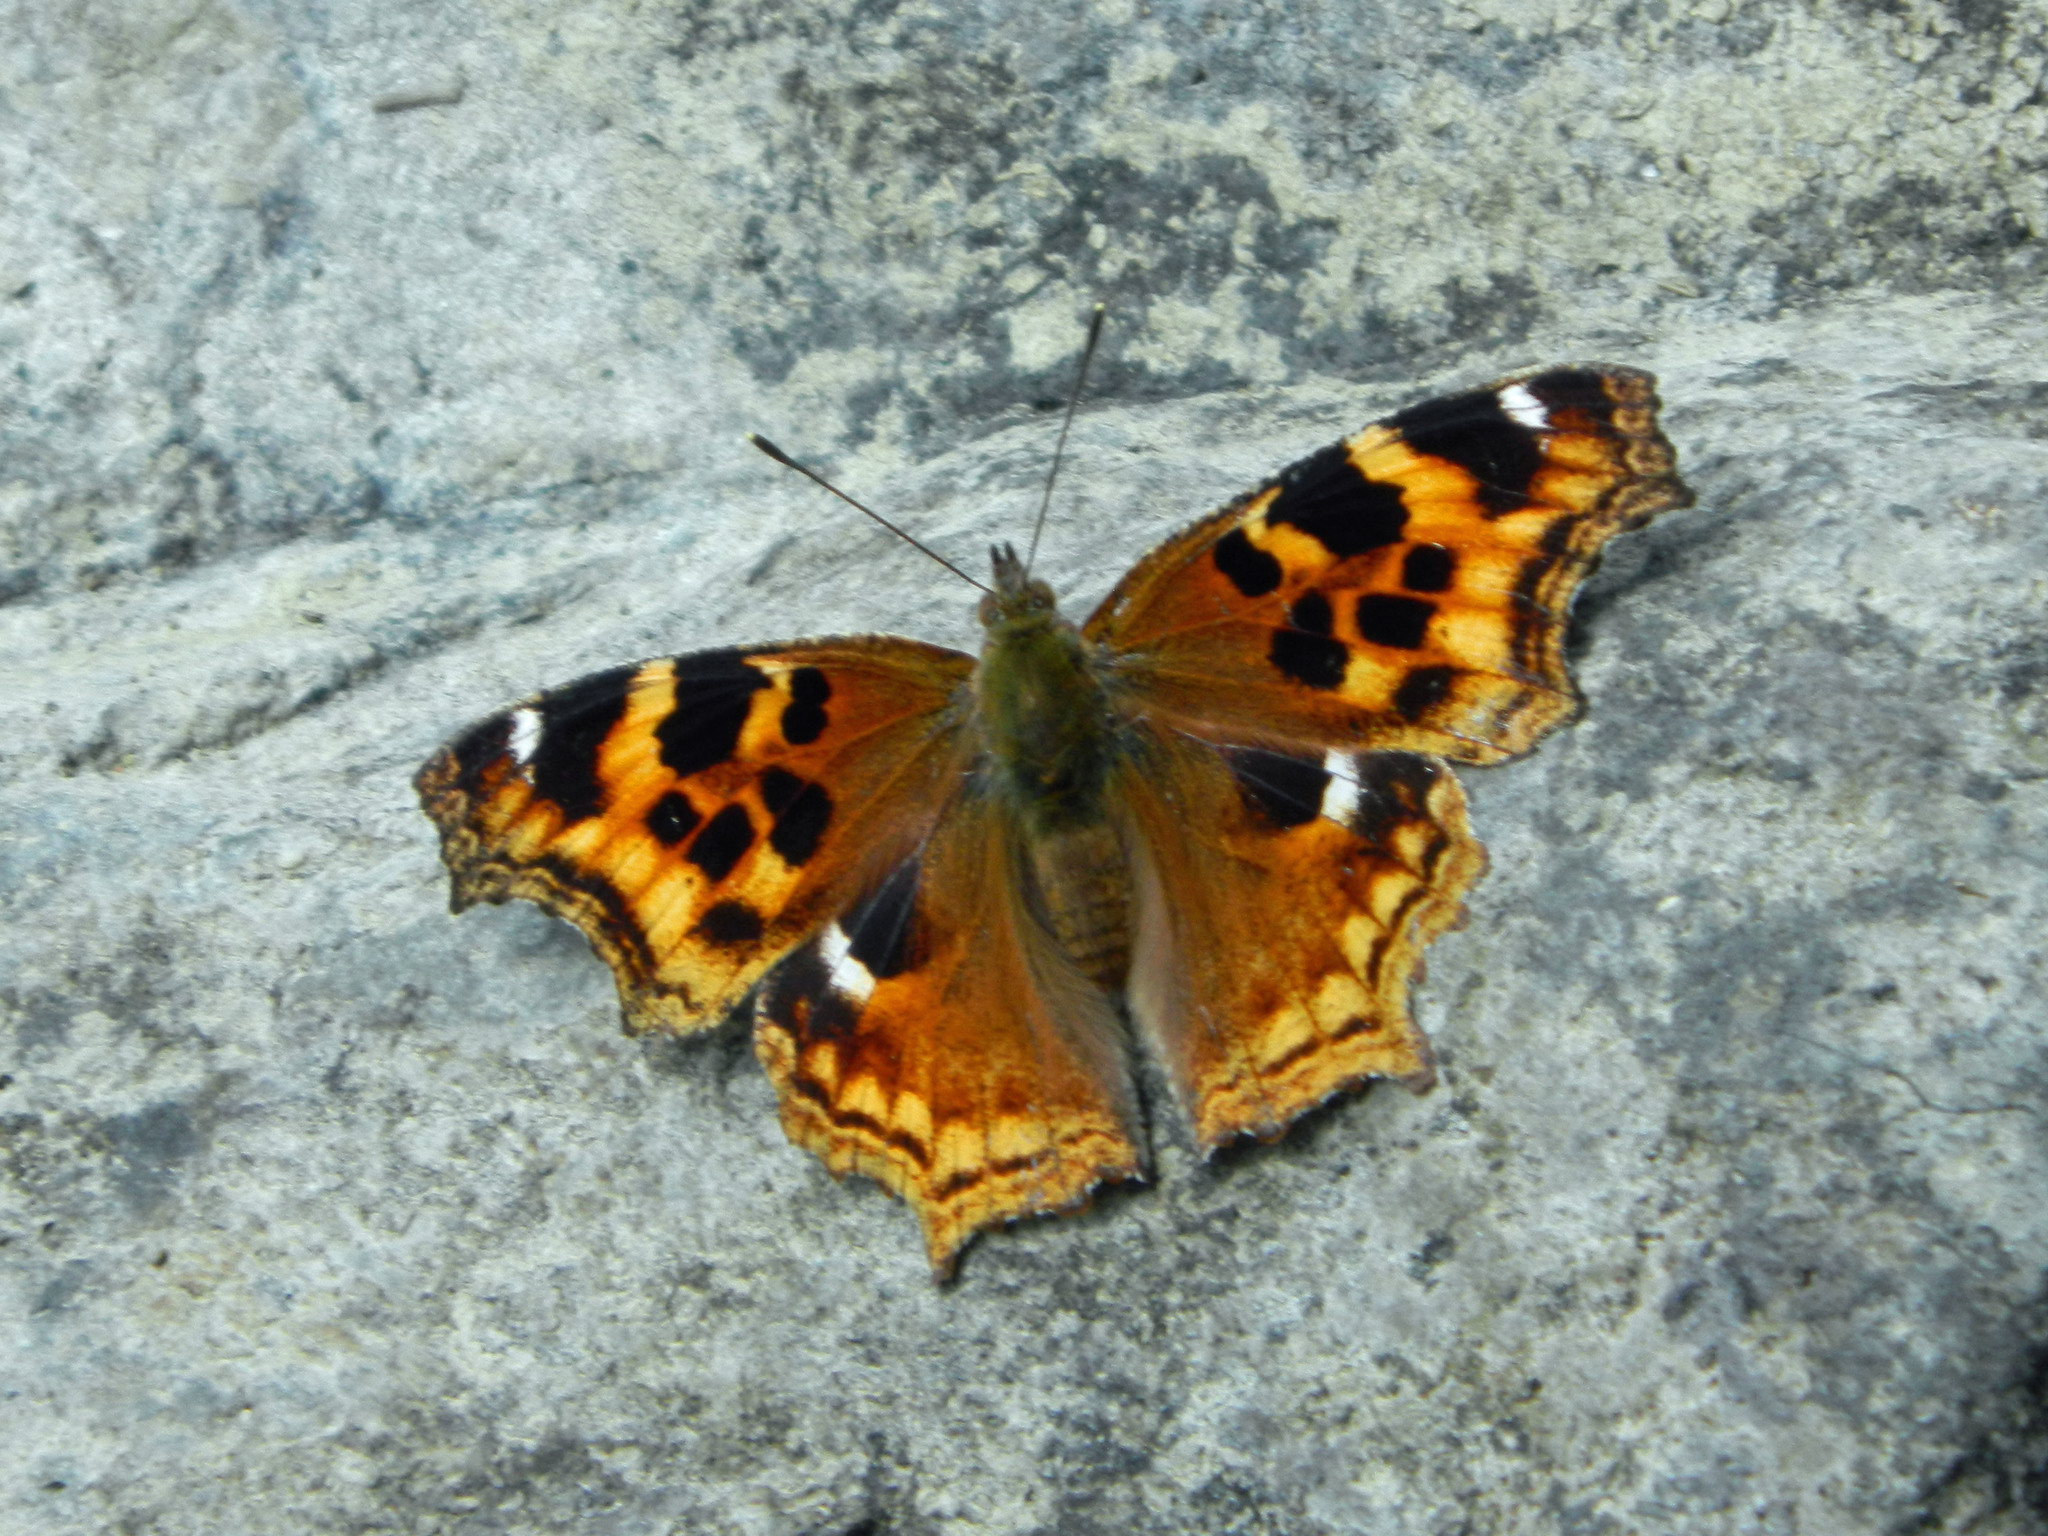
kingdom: Animalia
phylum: Arthropoda
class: Insecta
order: Lepidoptera
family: Nymphalidae
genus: Polygonia
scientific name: Polygonia vaualbum
